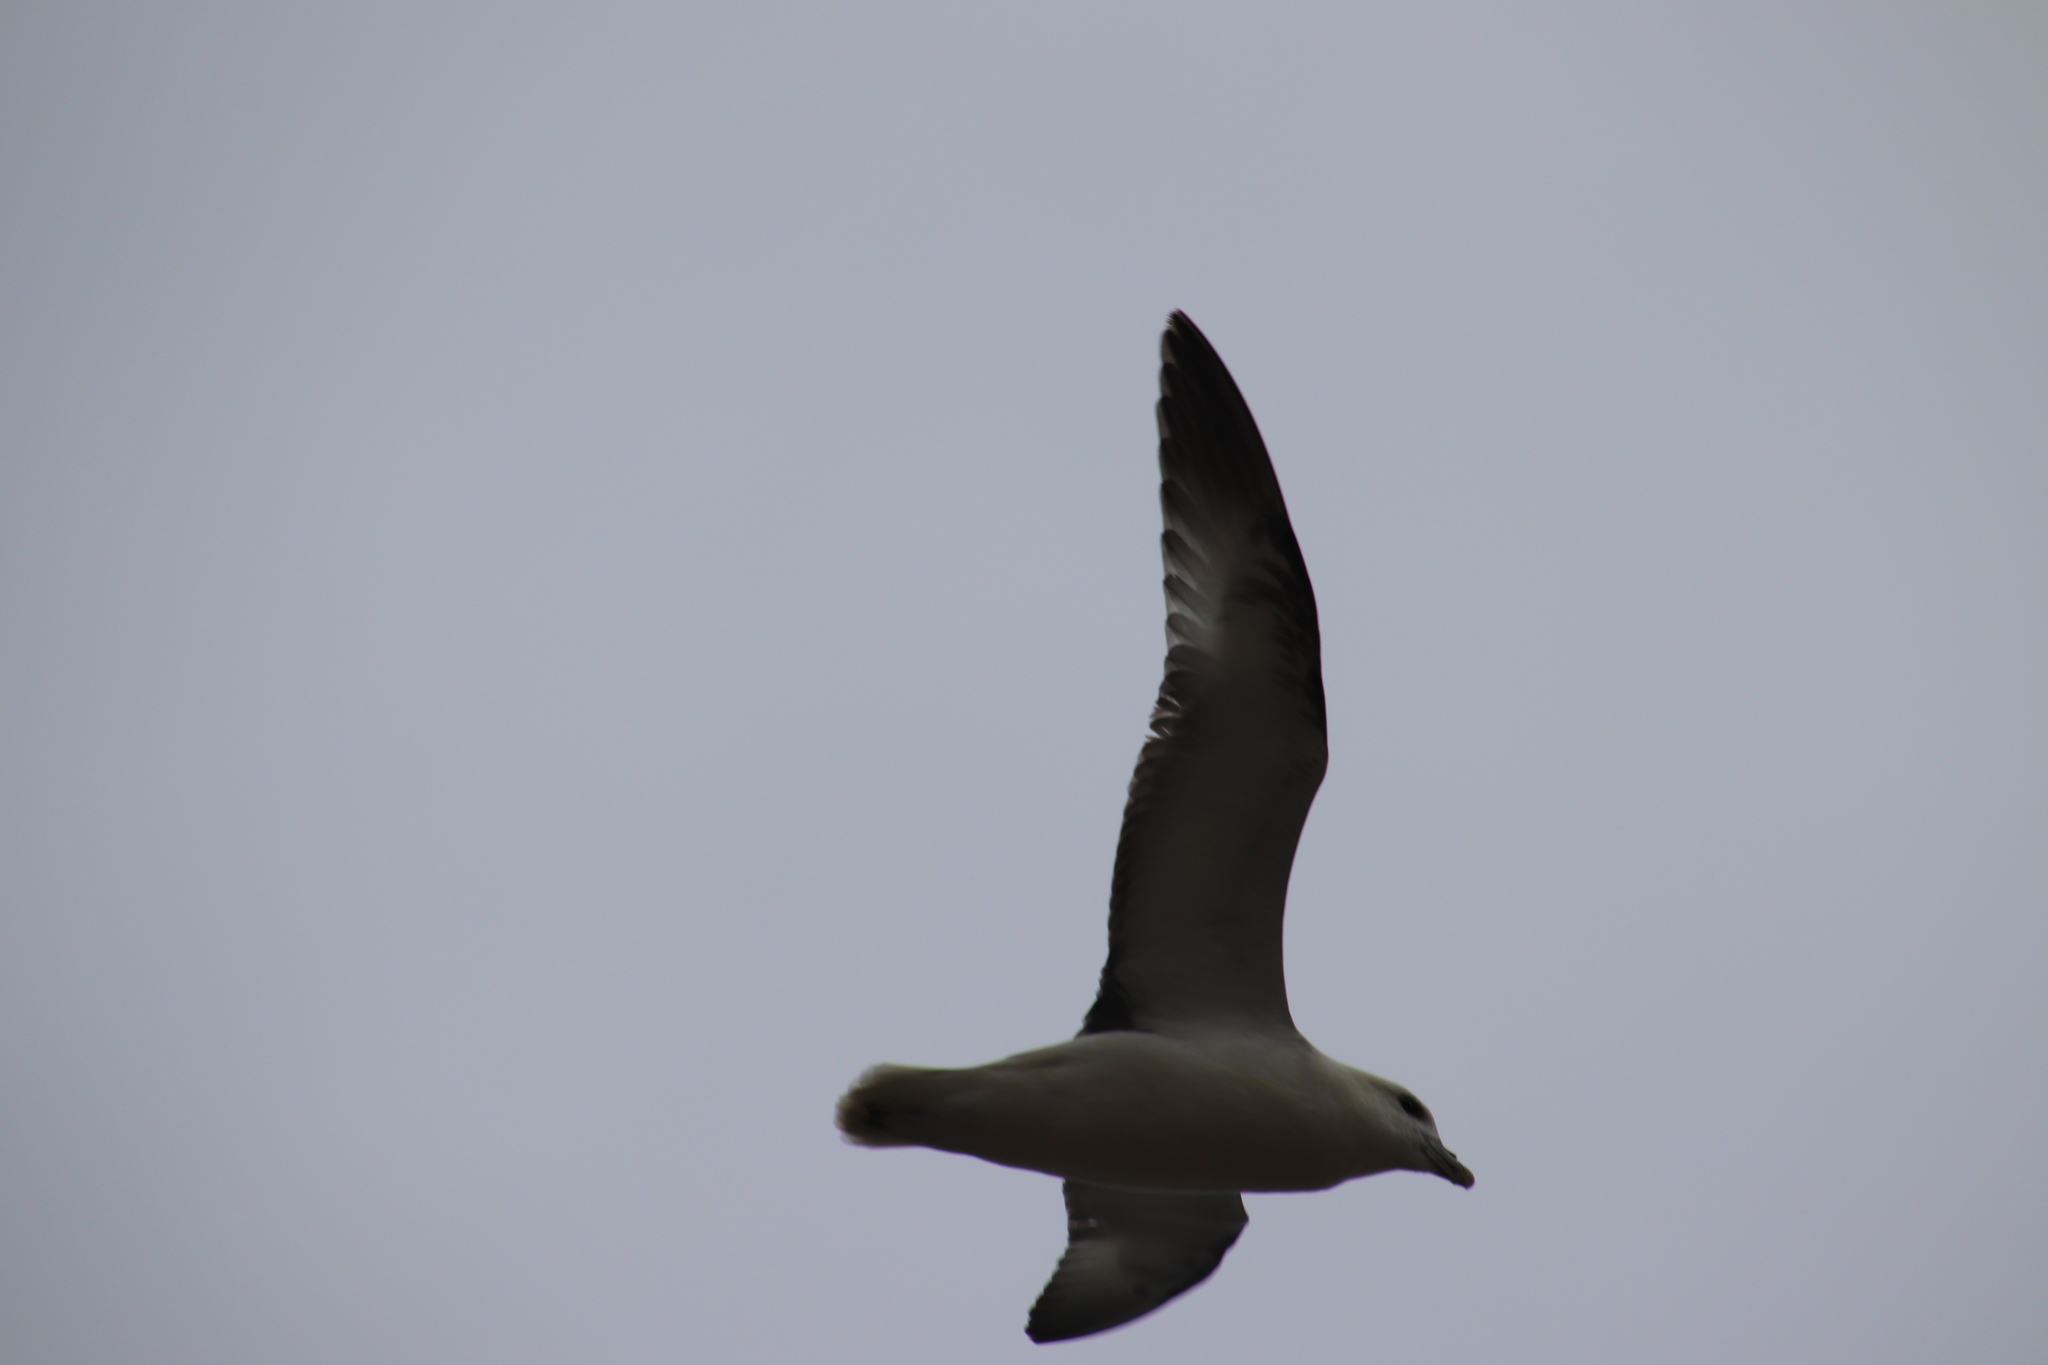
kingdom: Animalia
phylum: Chordata
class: Aves
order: Procellariiformes
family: Procellariidae
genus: Fulmarus
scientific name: Fulmarus glacialis
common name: Northern fulmar
